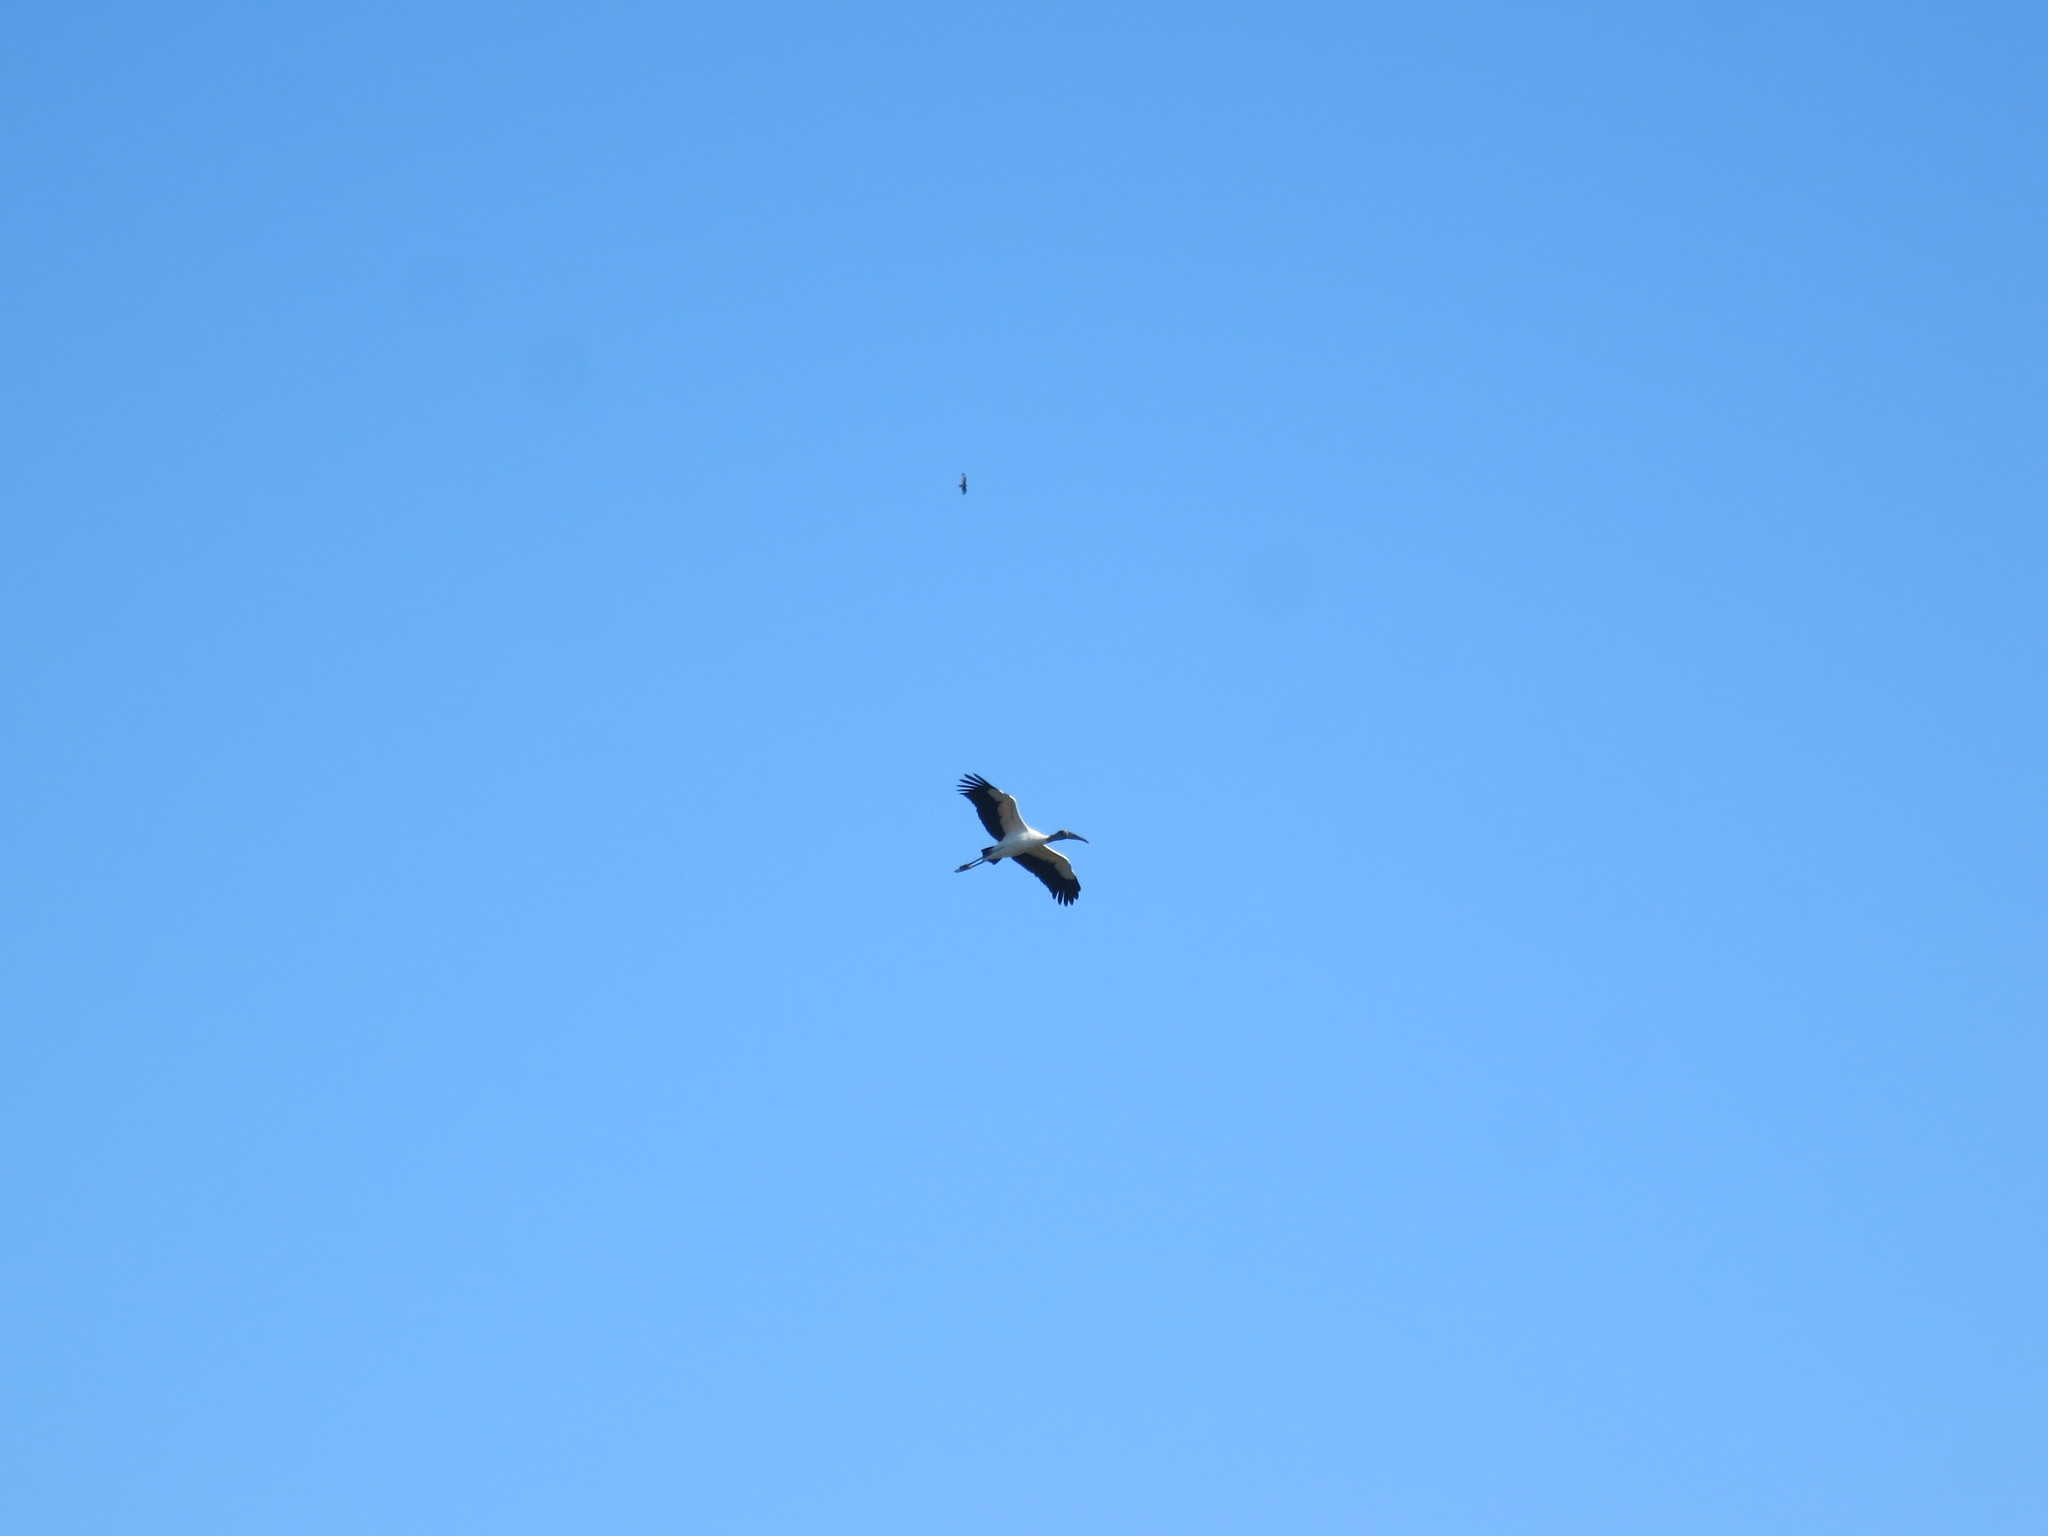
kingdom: Animalia
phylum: Chordata
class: Aves
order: Ciconiiformes
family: Ciconiidae
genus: Mycteria
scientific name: Mycteria americana
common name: Wood stork
